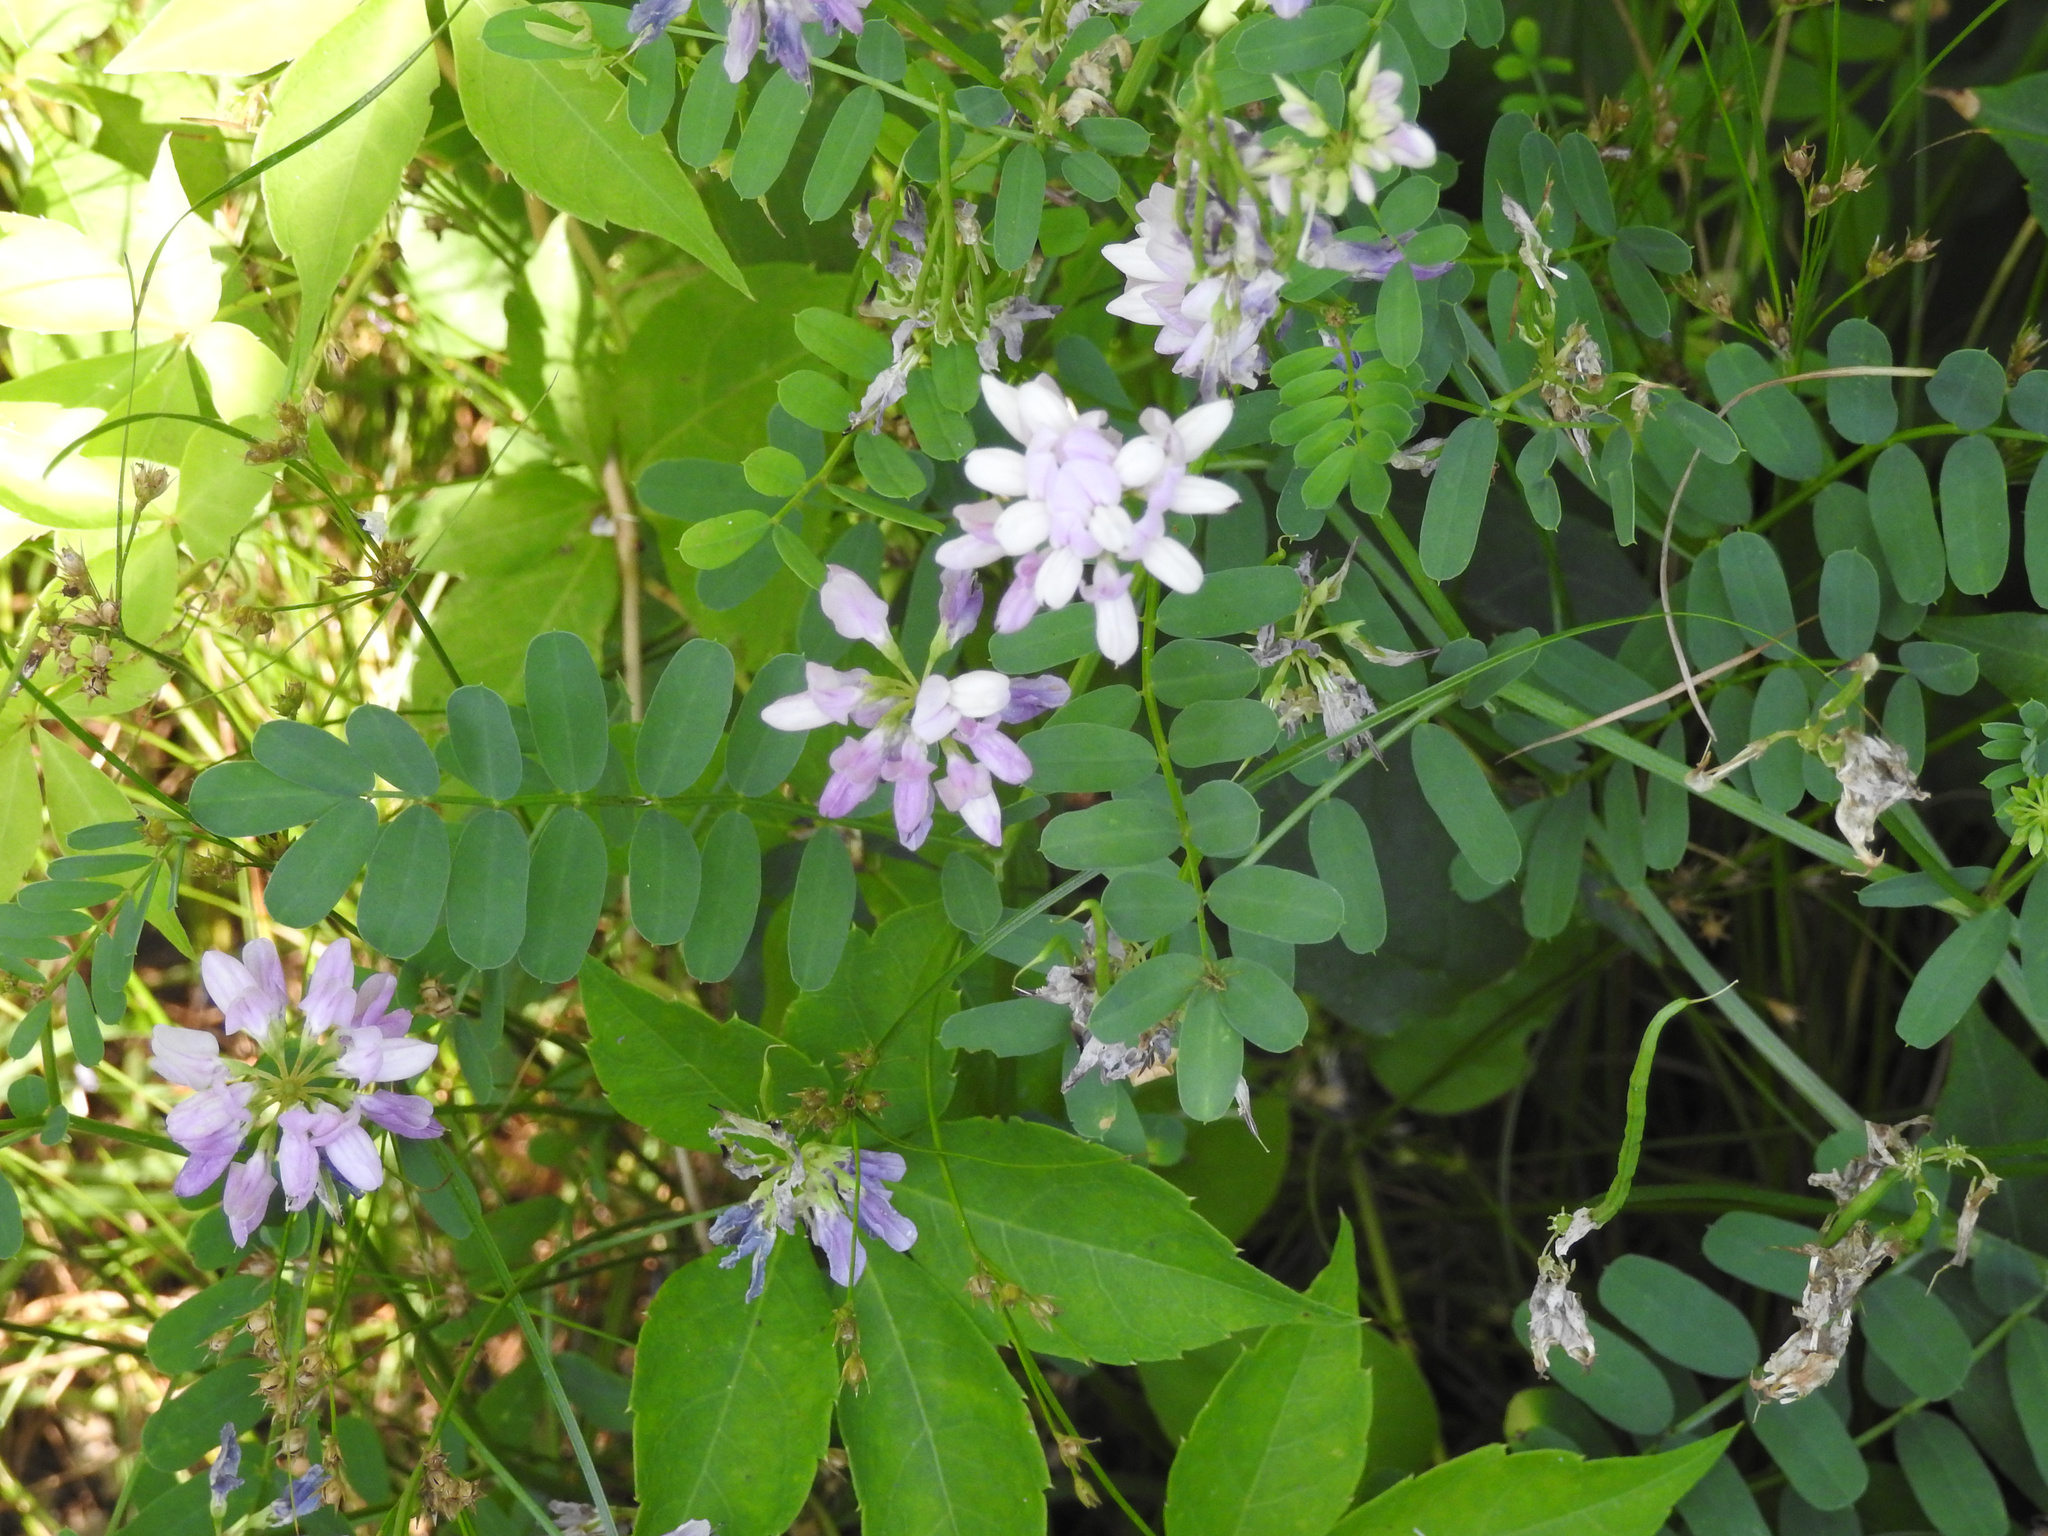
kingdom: Plantae
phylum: Tracheophyta
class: Magnoliopsida
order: Fabales
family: Fabaceae
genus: Coronilla
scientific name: Coronilla varia
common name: Crownvetch
